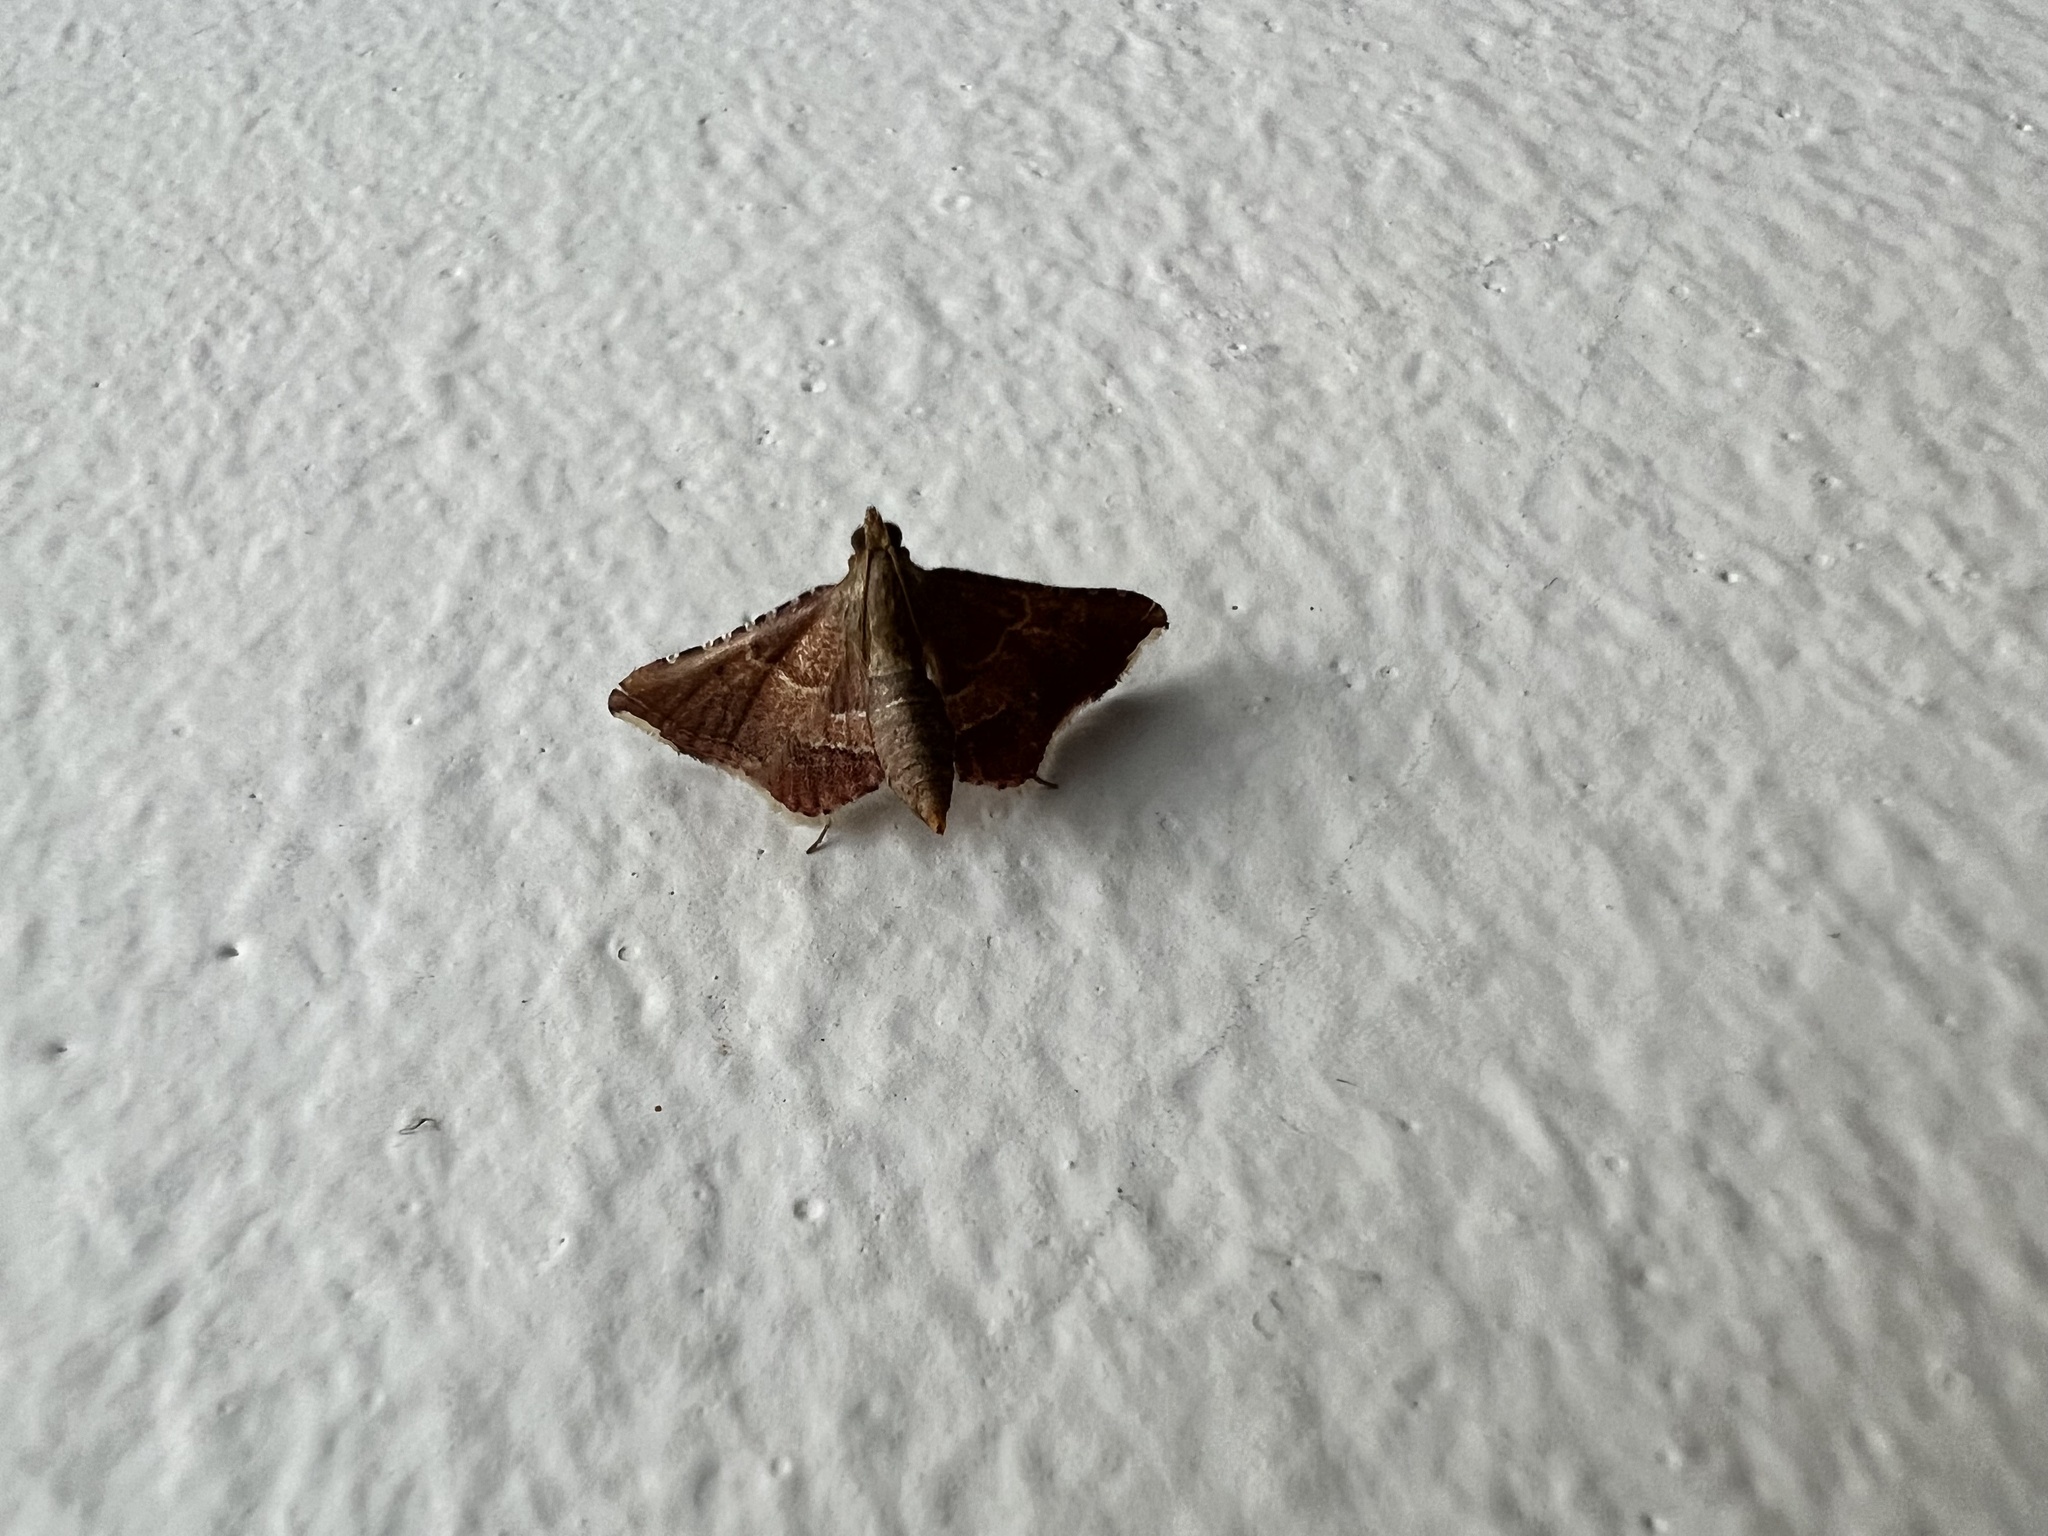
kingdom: Animalia
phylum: Arthropoda
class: Insecta
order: Lepidoptera
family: Pyralidae
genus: Endotricha
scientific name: Endotricha flammealis
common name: Rosy tabby
